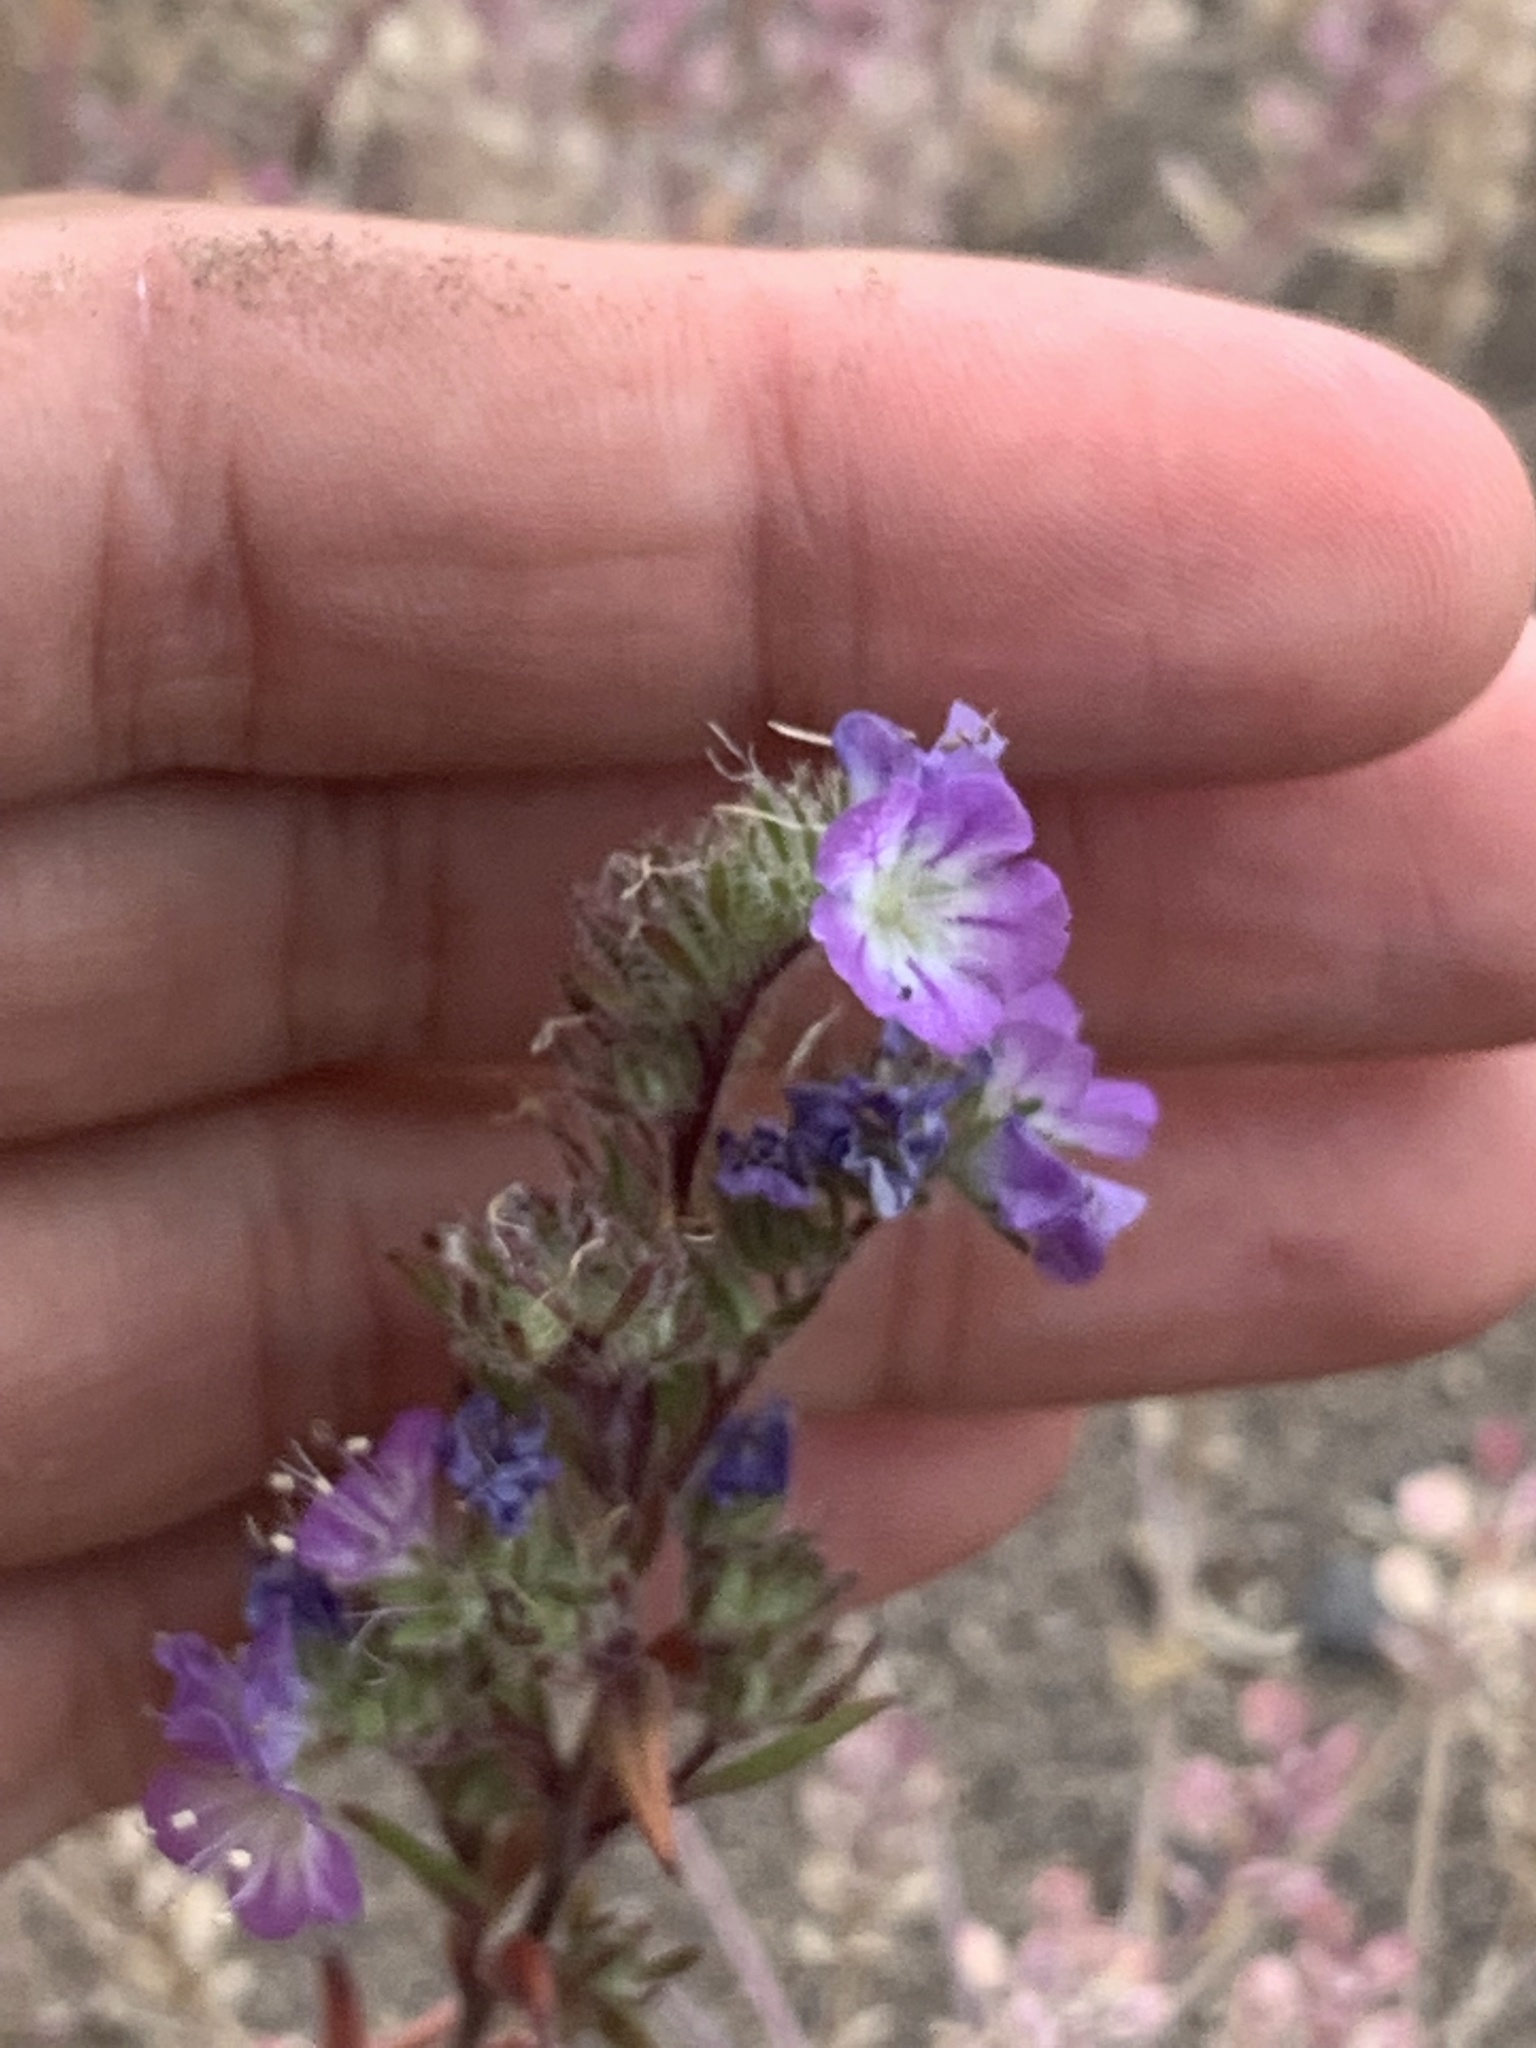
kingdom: Plantae
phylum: Tracheophyta
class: Magnoliopsida
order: Boraginales
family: Hydrophyllaceae
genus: Phacelia
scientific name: Phacelia linearis
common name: Linear-leaved phacelia
